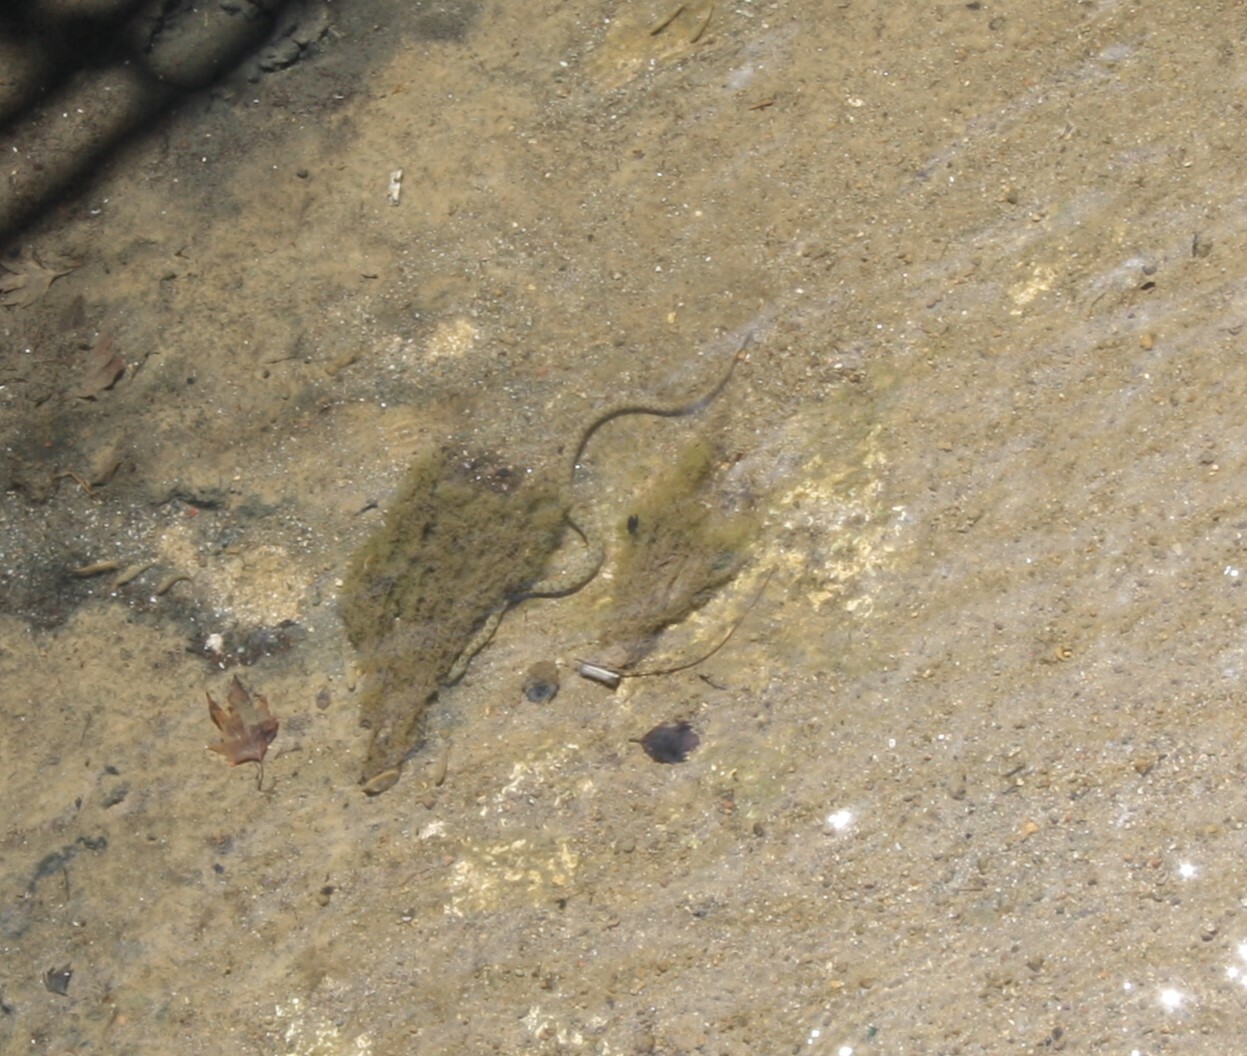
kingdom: Animalia
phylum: Chordata
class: Squamata
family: Colubridae
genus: Natrix
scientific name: Natrix tessellata
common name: Dice snake
